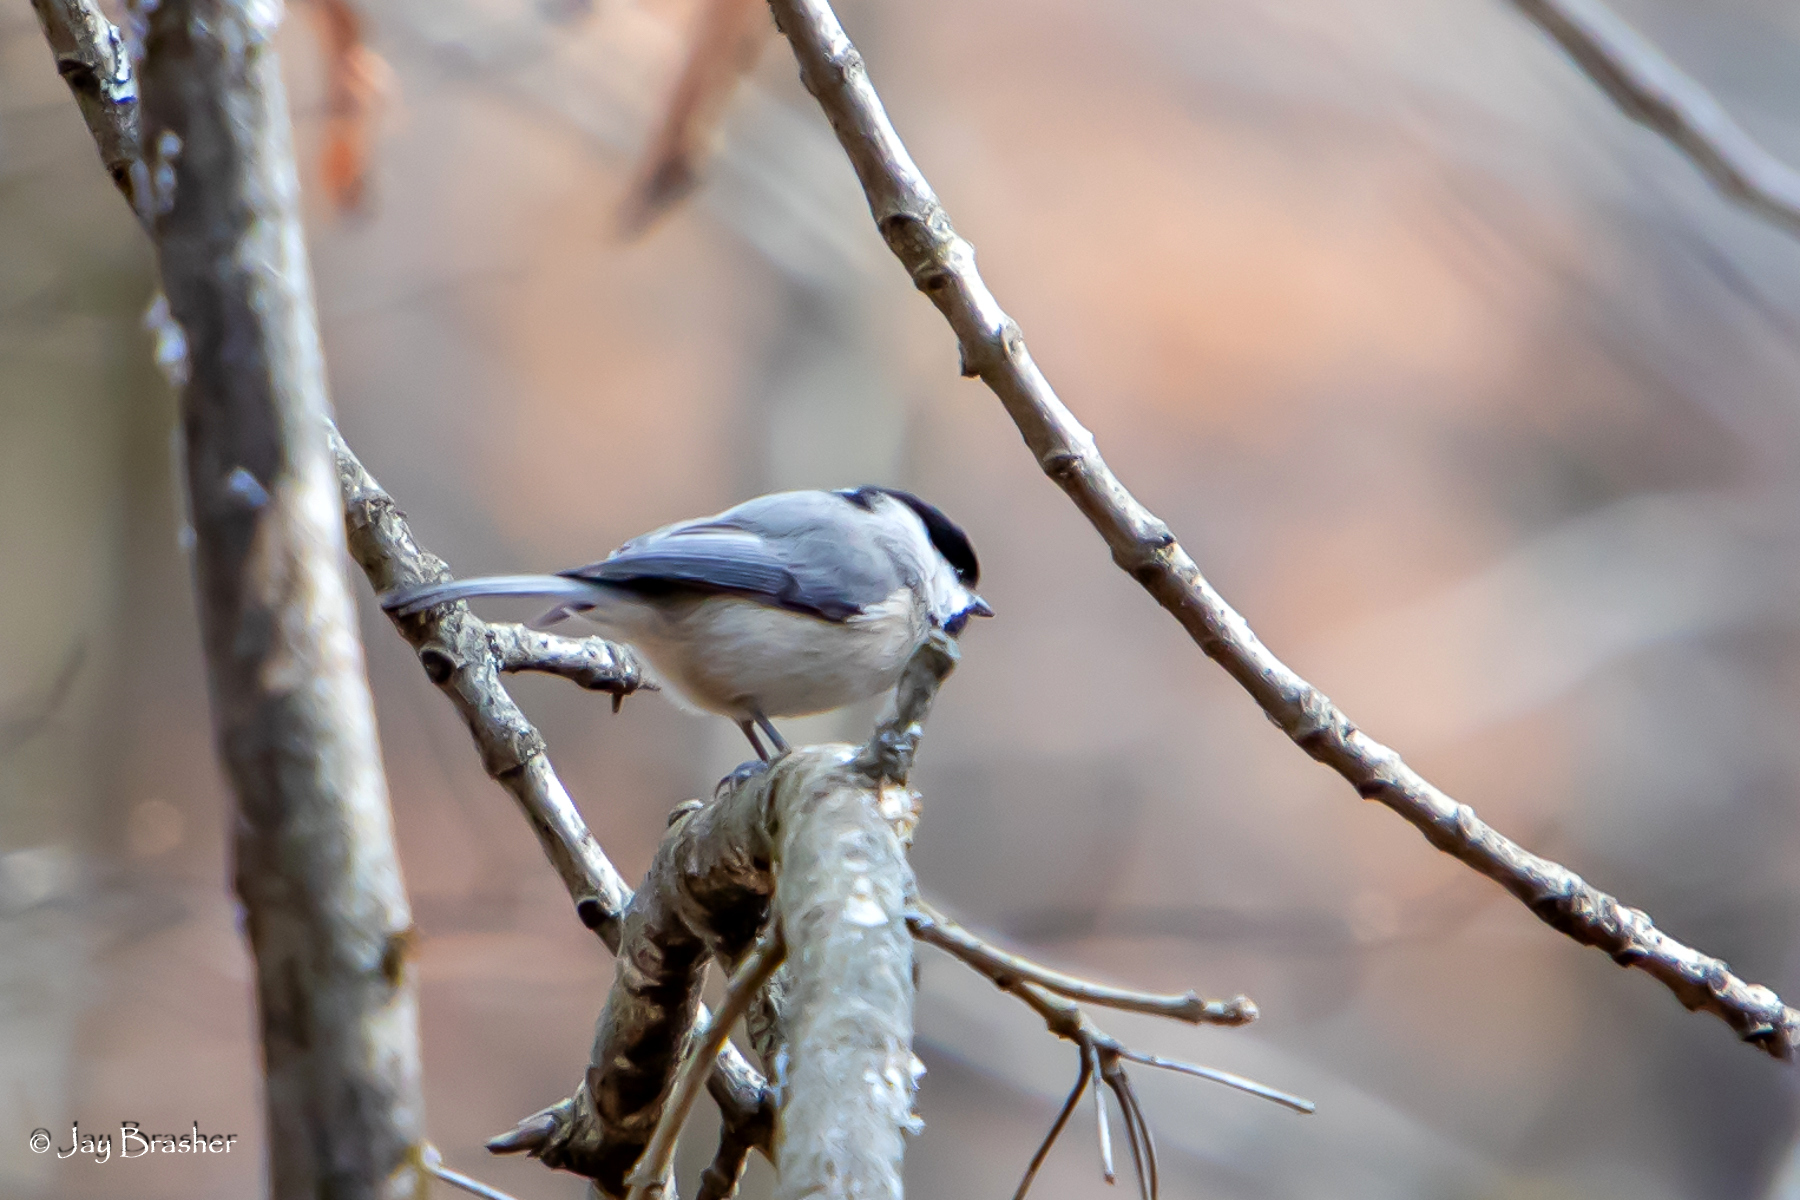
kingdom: Animalia
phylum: Chordata
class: Aves
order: Passeriformes
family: Paridae
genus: Poecile
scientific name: Poecile carolinensis
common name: Carolina chickadee
